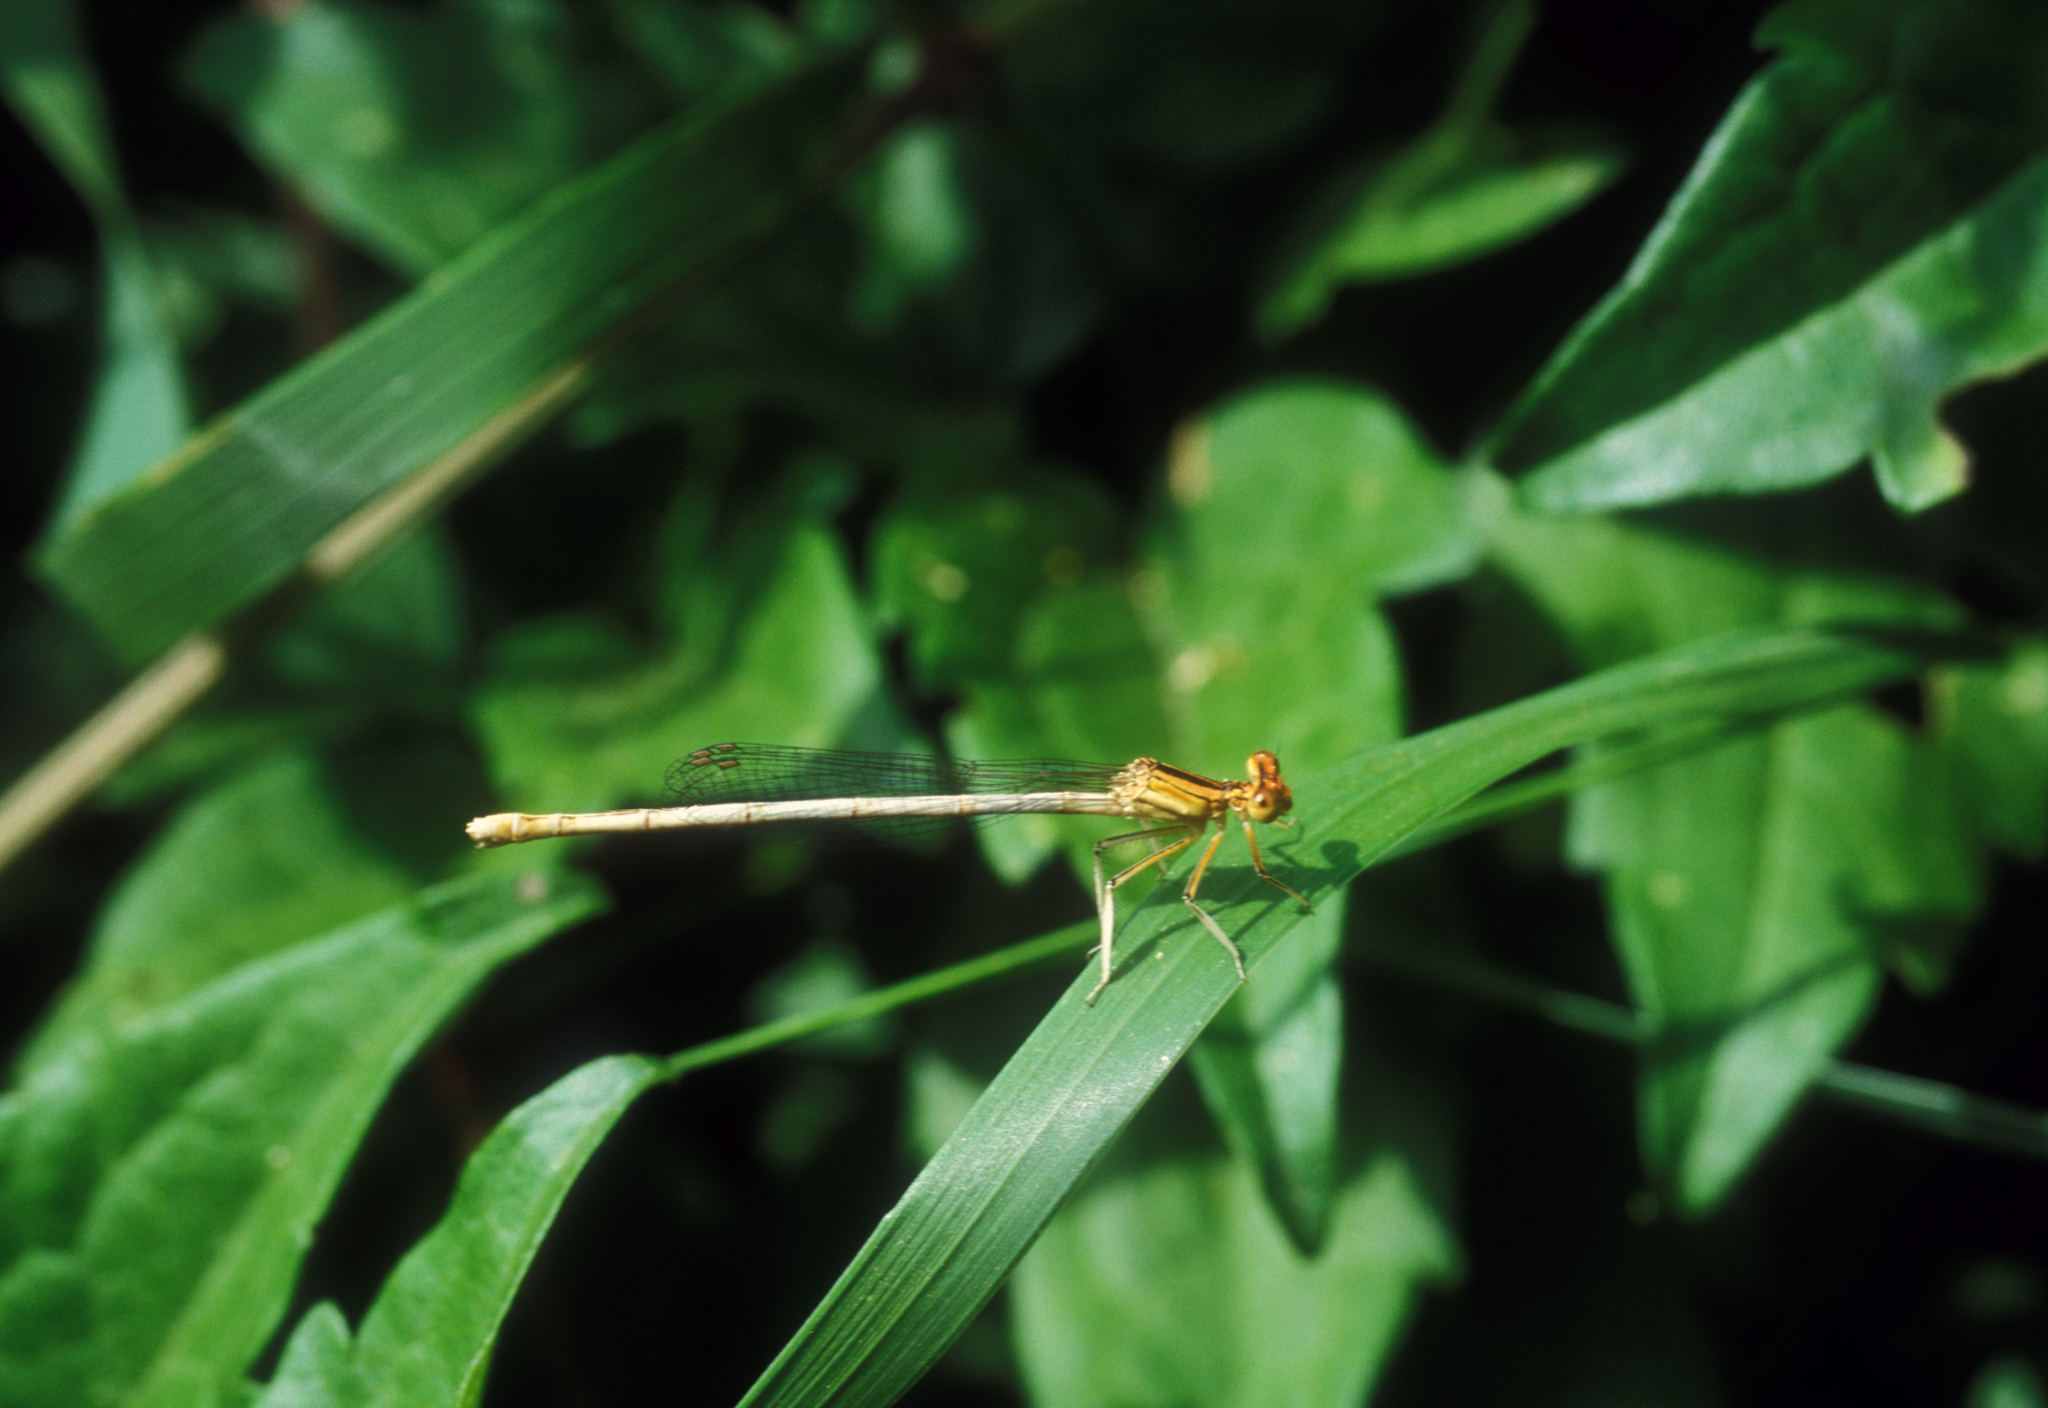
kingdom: Animalia
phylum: Arthropoda
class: Insecta
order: Odonata
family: Platycnemididae
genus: Platycnemis
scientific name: Platycnemis latipes
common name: White featherleg
